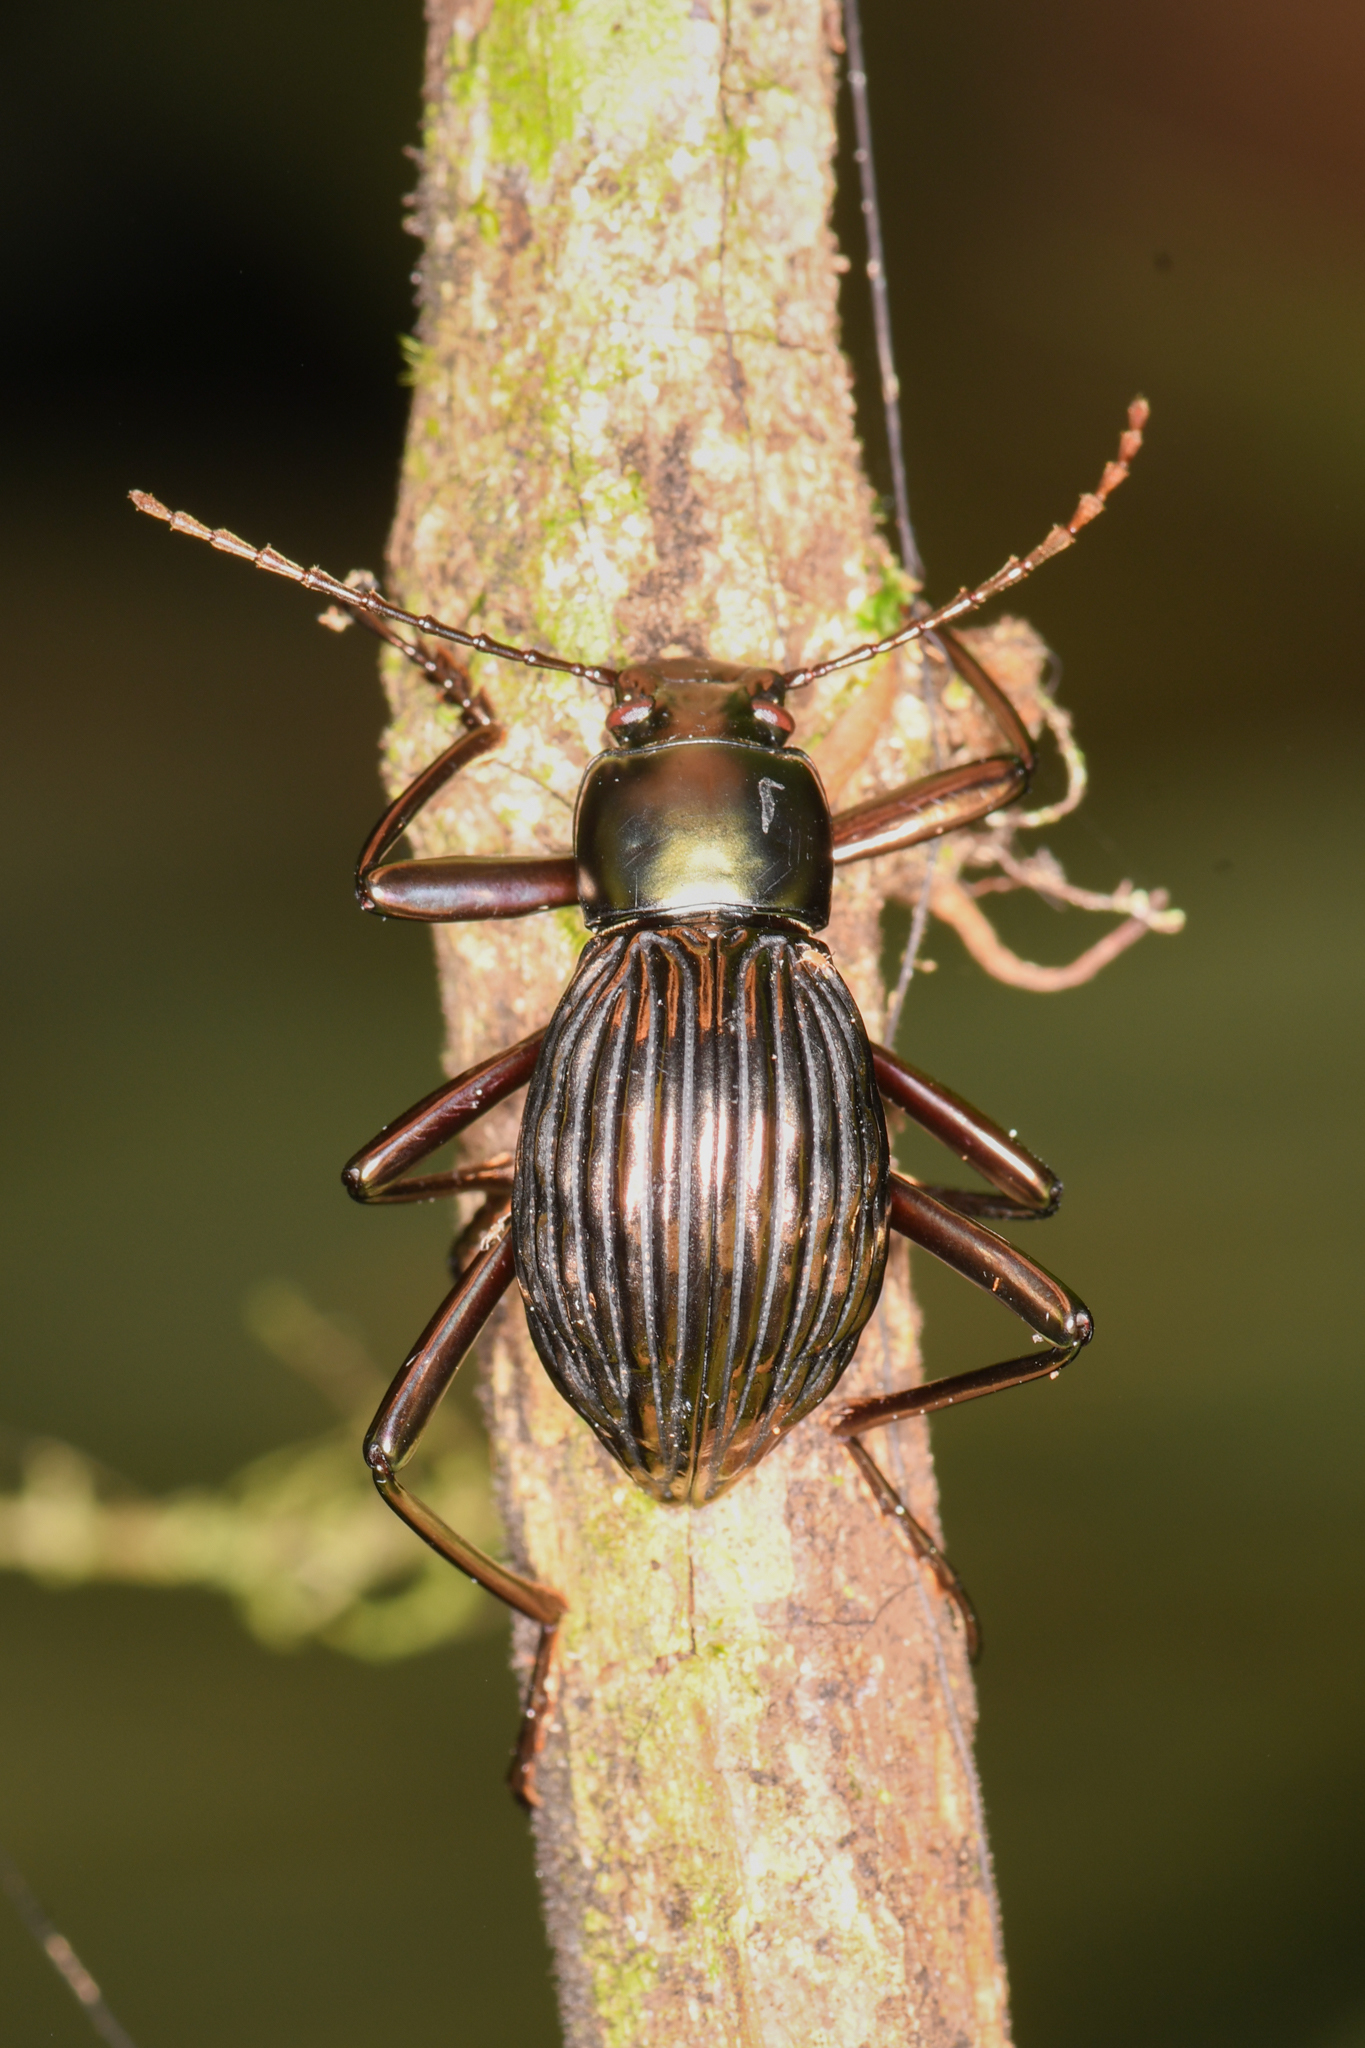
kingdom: Animalia
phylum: Arthropoda
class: Insecta
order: Coleoptera
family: Tenebrionidae
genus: Hegemona
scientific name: Hegemona flibuster
